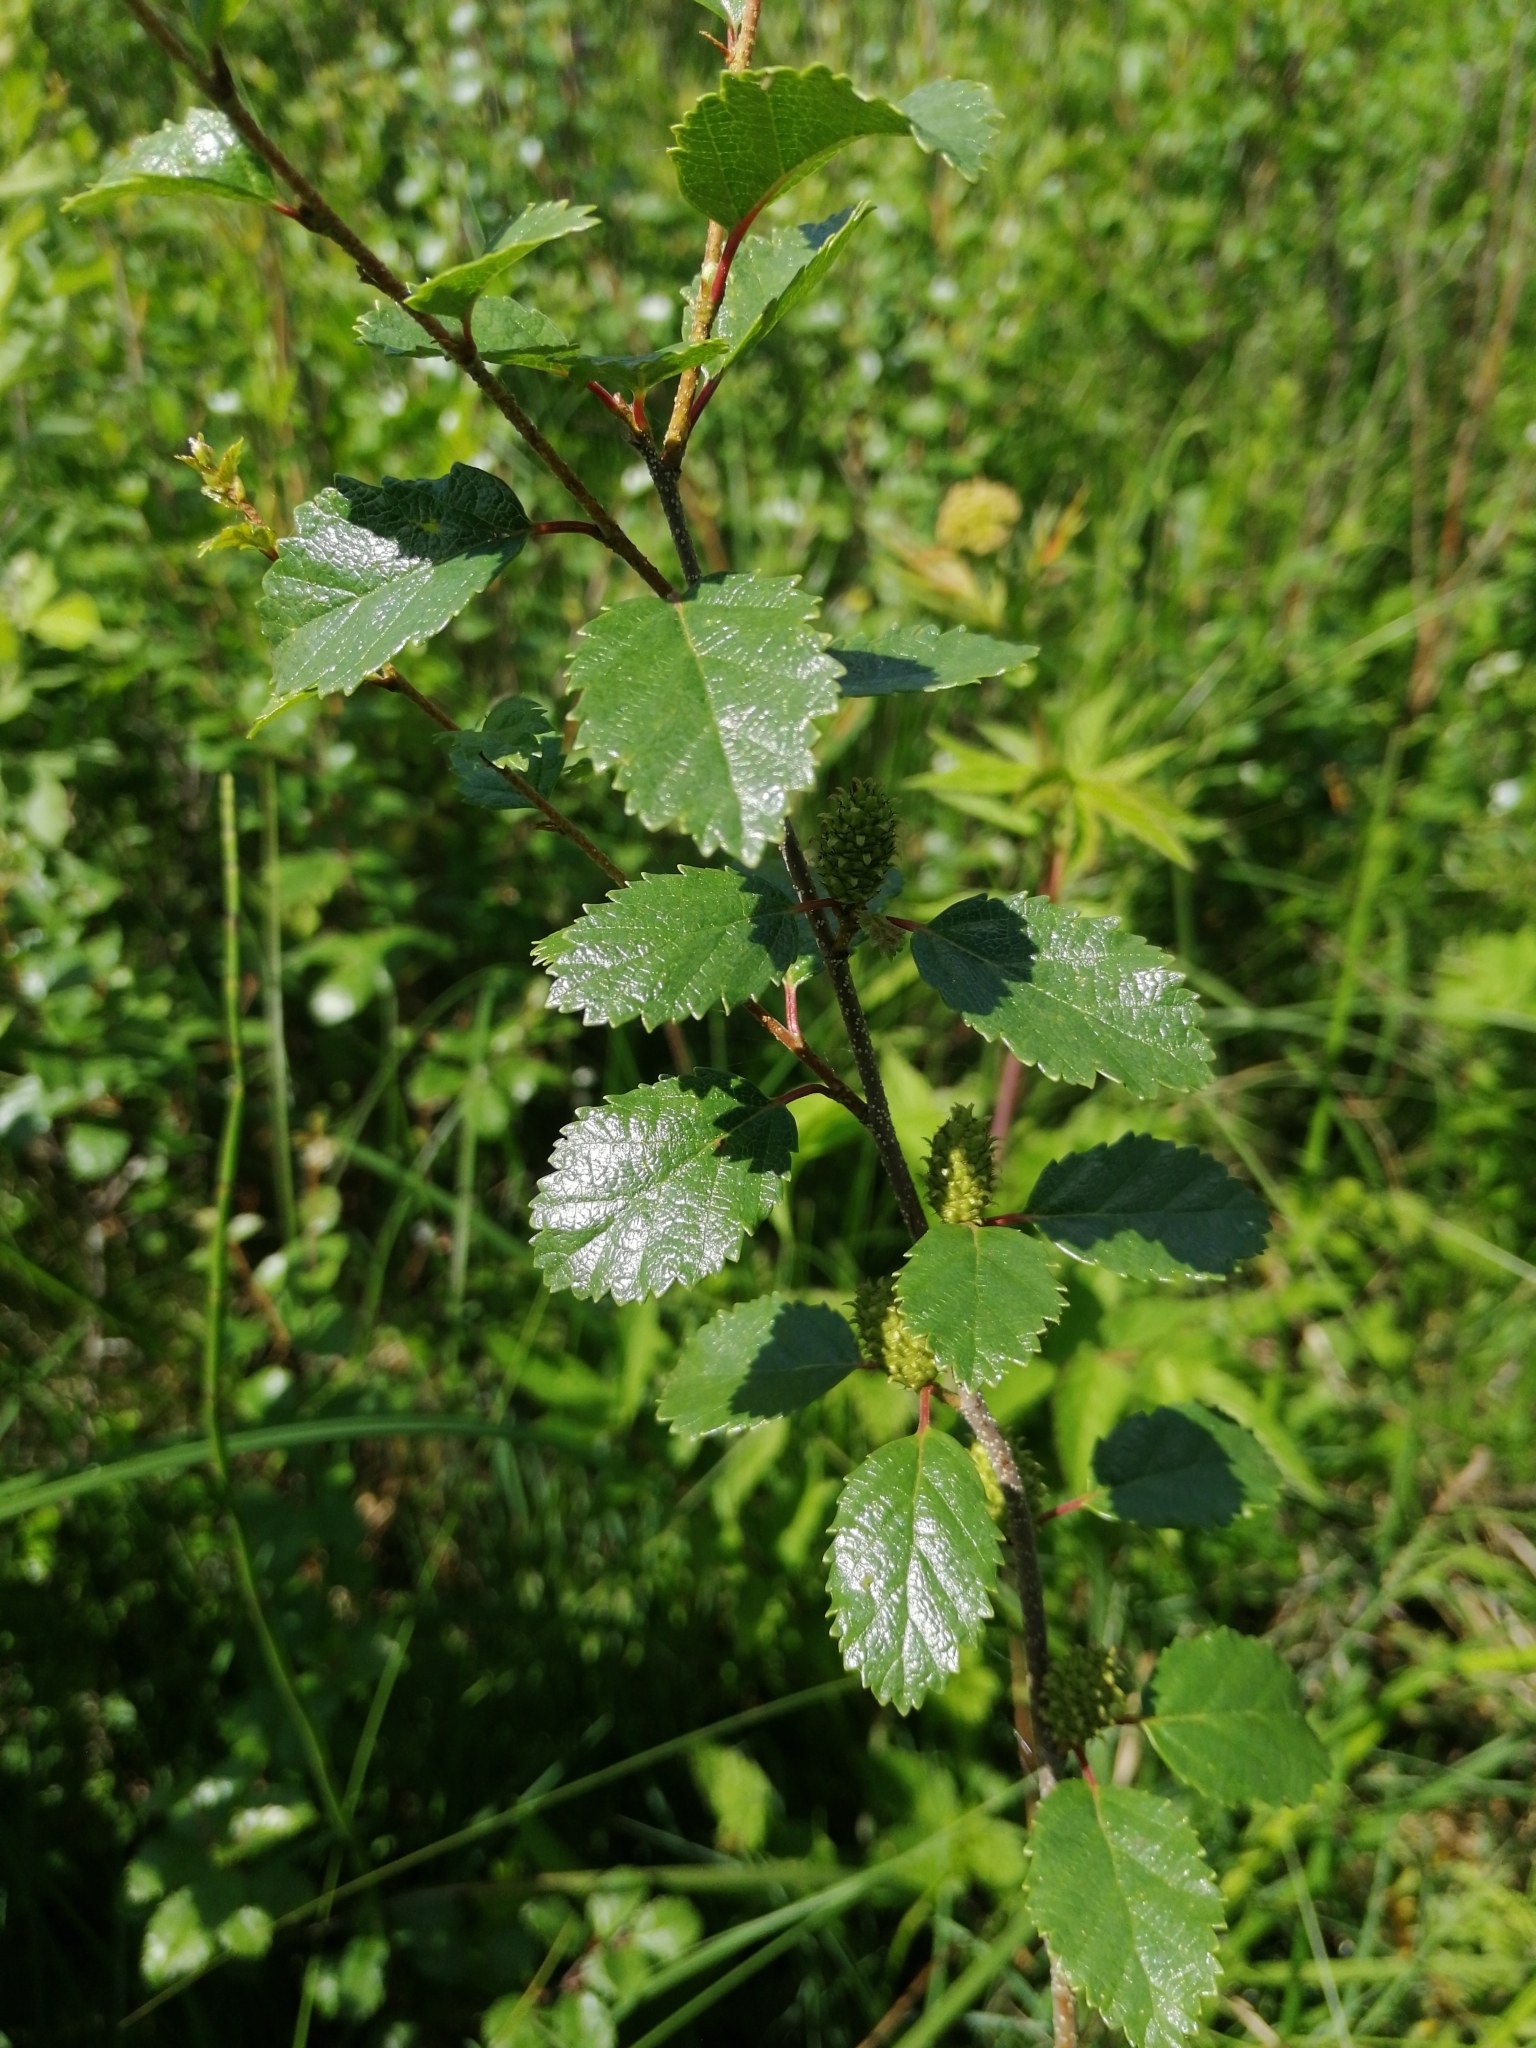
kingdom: Plantae
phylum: Tracheophyta
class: Magnoliopsida
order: Fagales
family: Betulaceae
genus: Betula
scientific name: Betula humilis
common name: Shrubby birch
